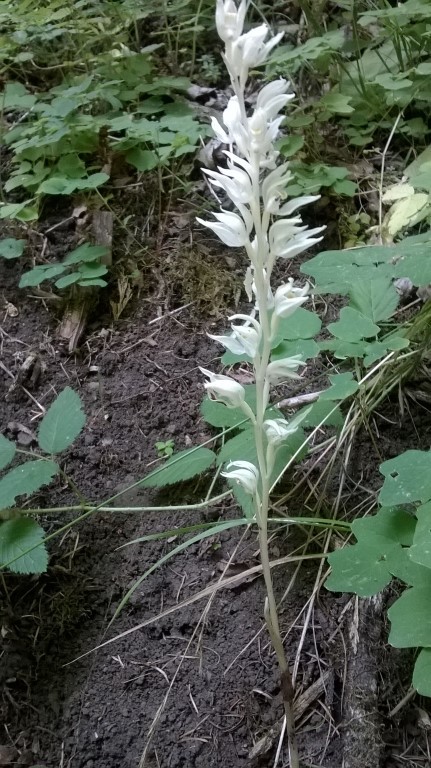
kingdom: Plantae
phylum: Tracheophyta
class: Liliopsida
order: Asparagales
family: Orchidaceae
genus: Cephalanthera
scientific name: Cephalanthera austiniae
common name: Phantom orchid
